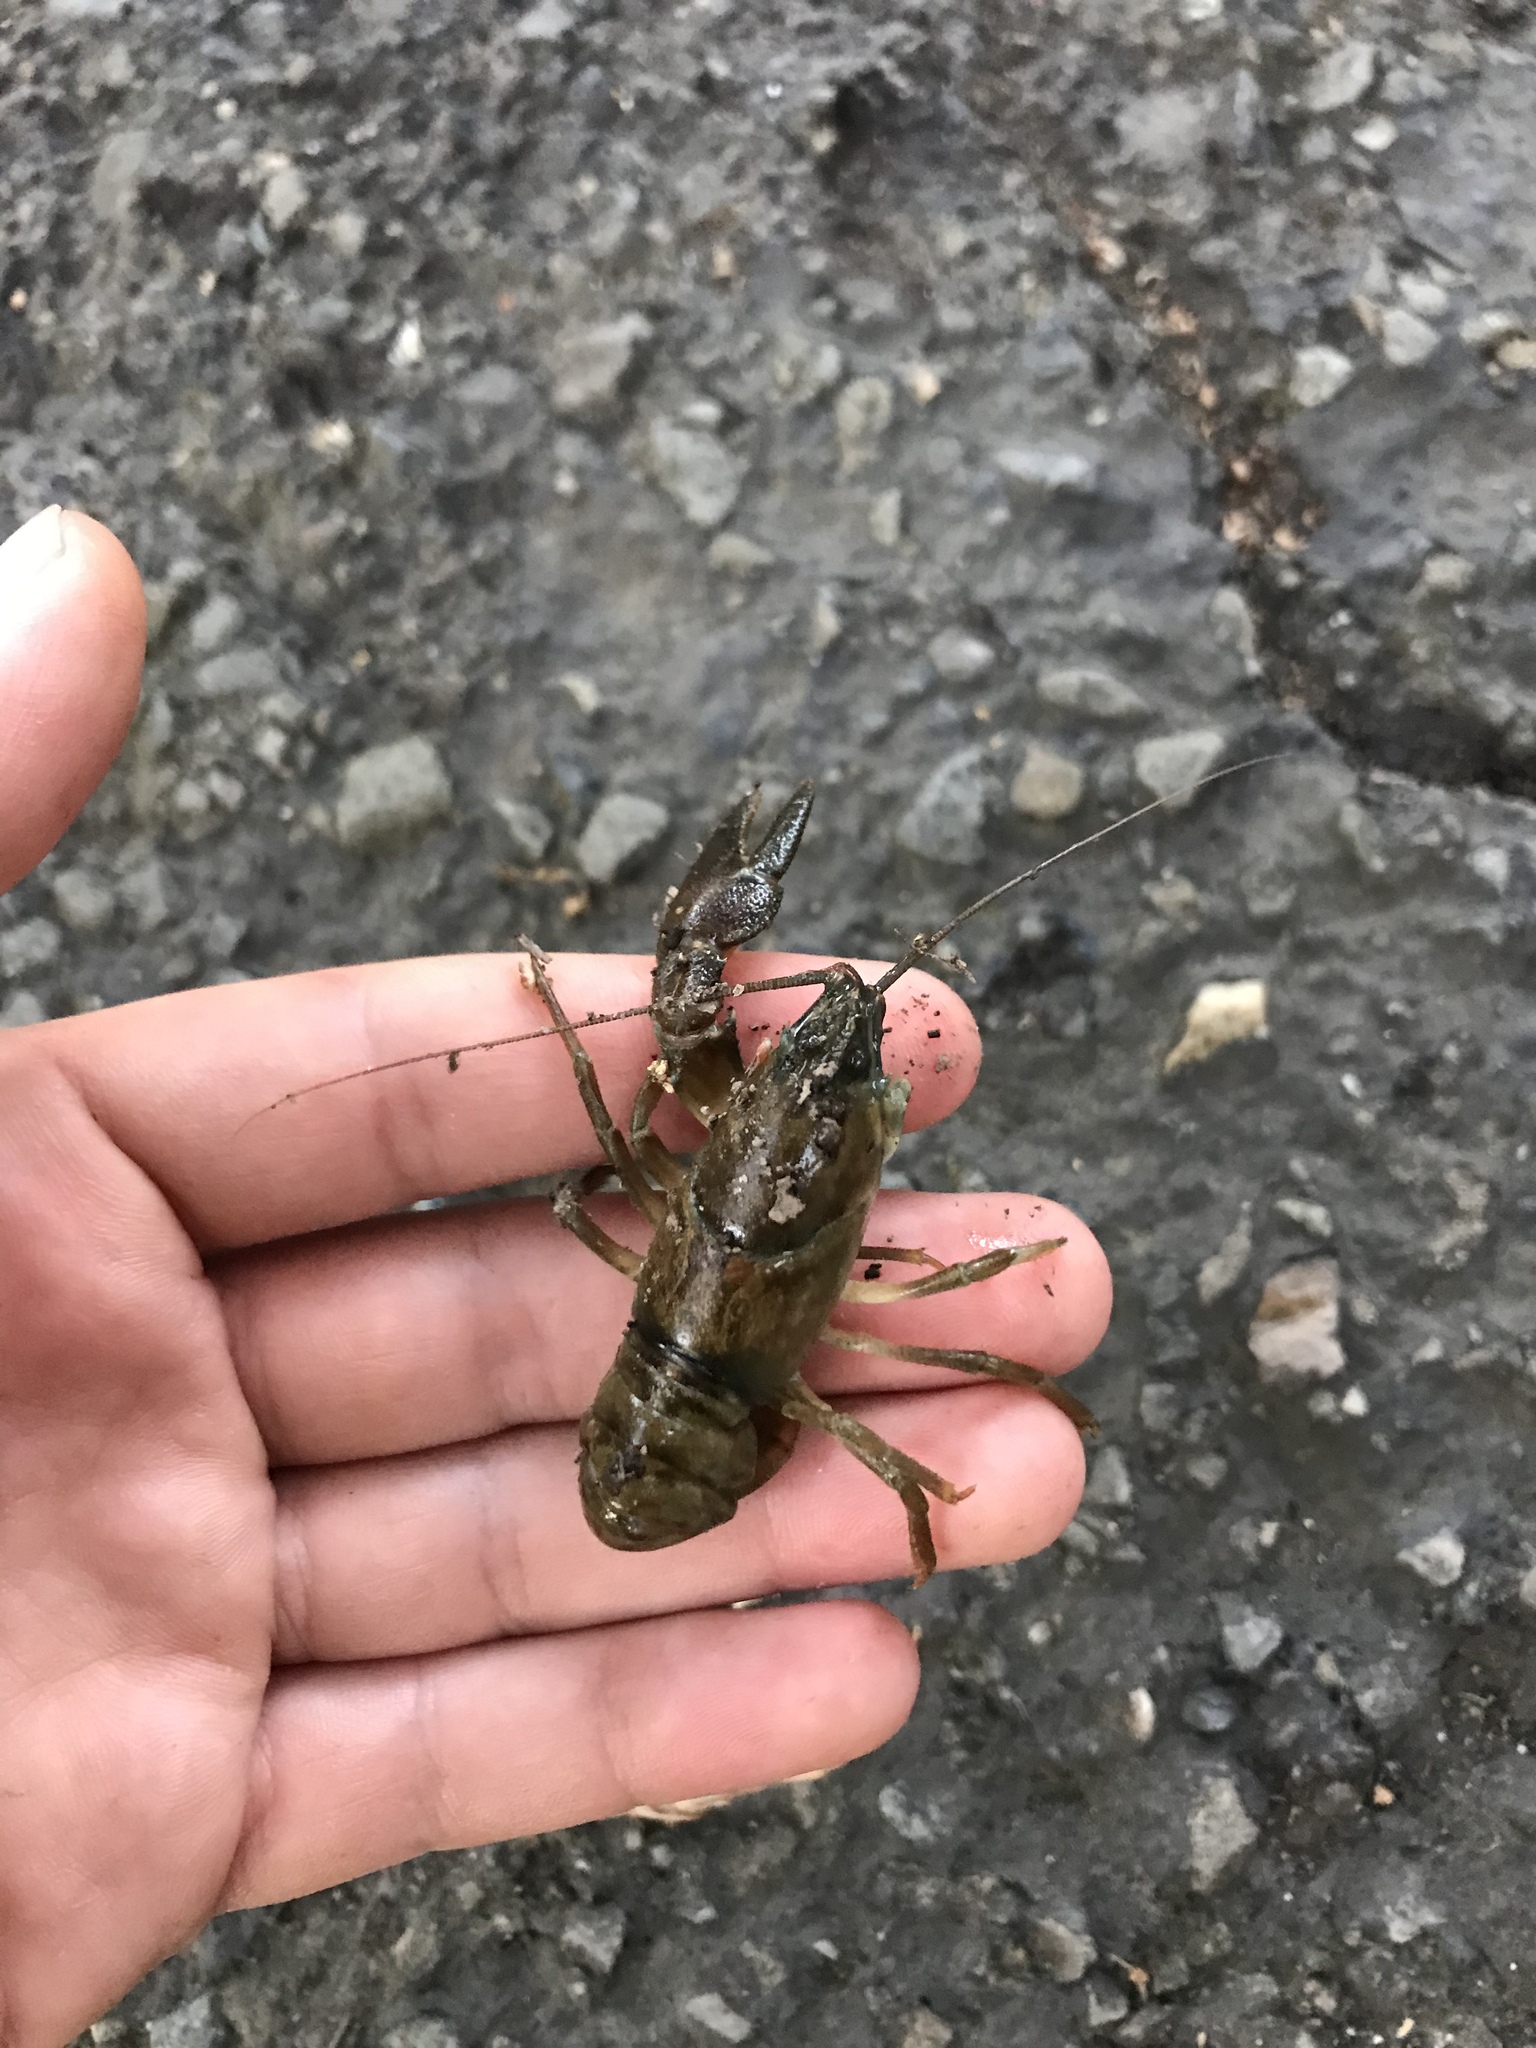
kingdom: Animalia
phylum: Arthropoda
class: Malacostraca
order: Decapoda
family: Astacidae
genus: Pacifastacus
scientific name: Pacifastacus leniusculus
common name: Signal crayfish
